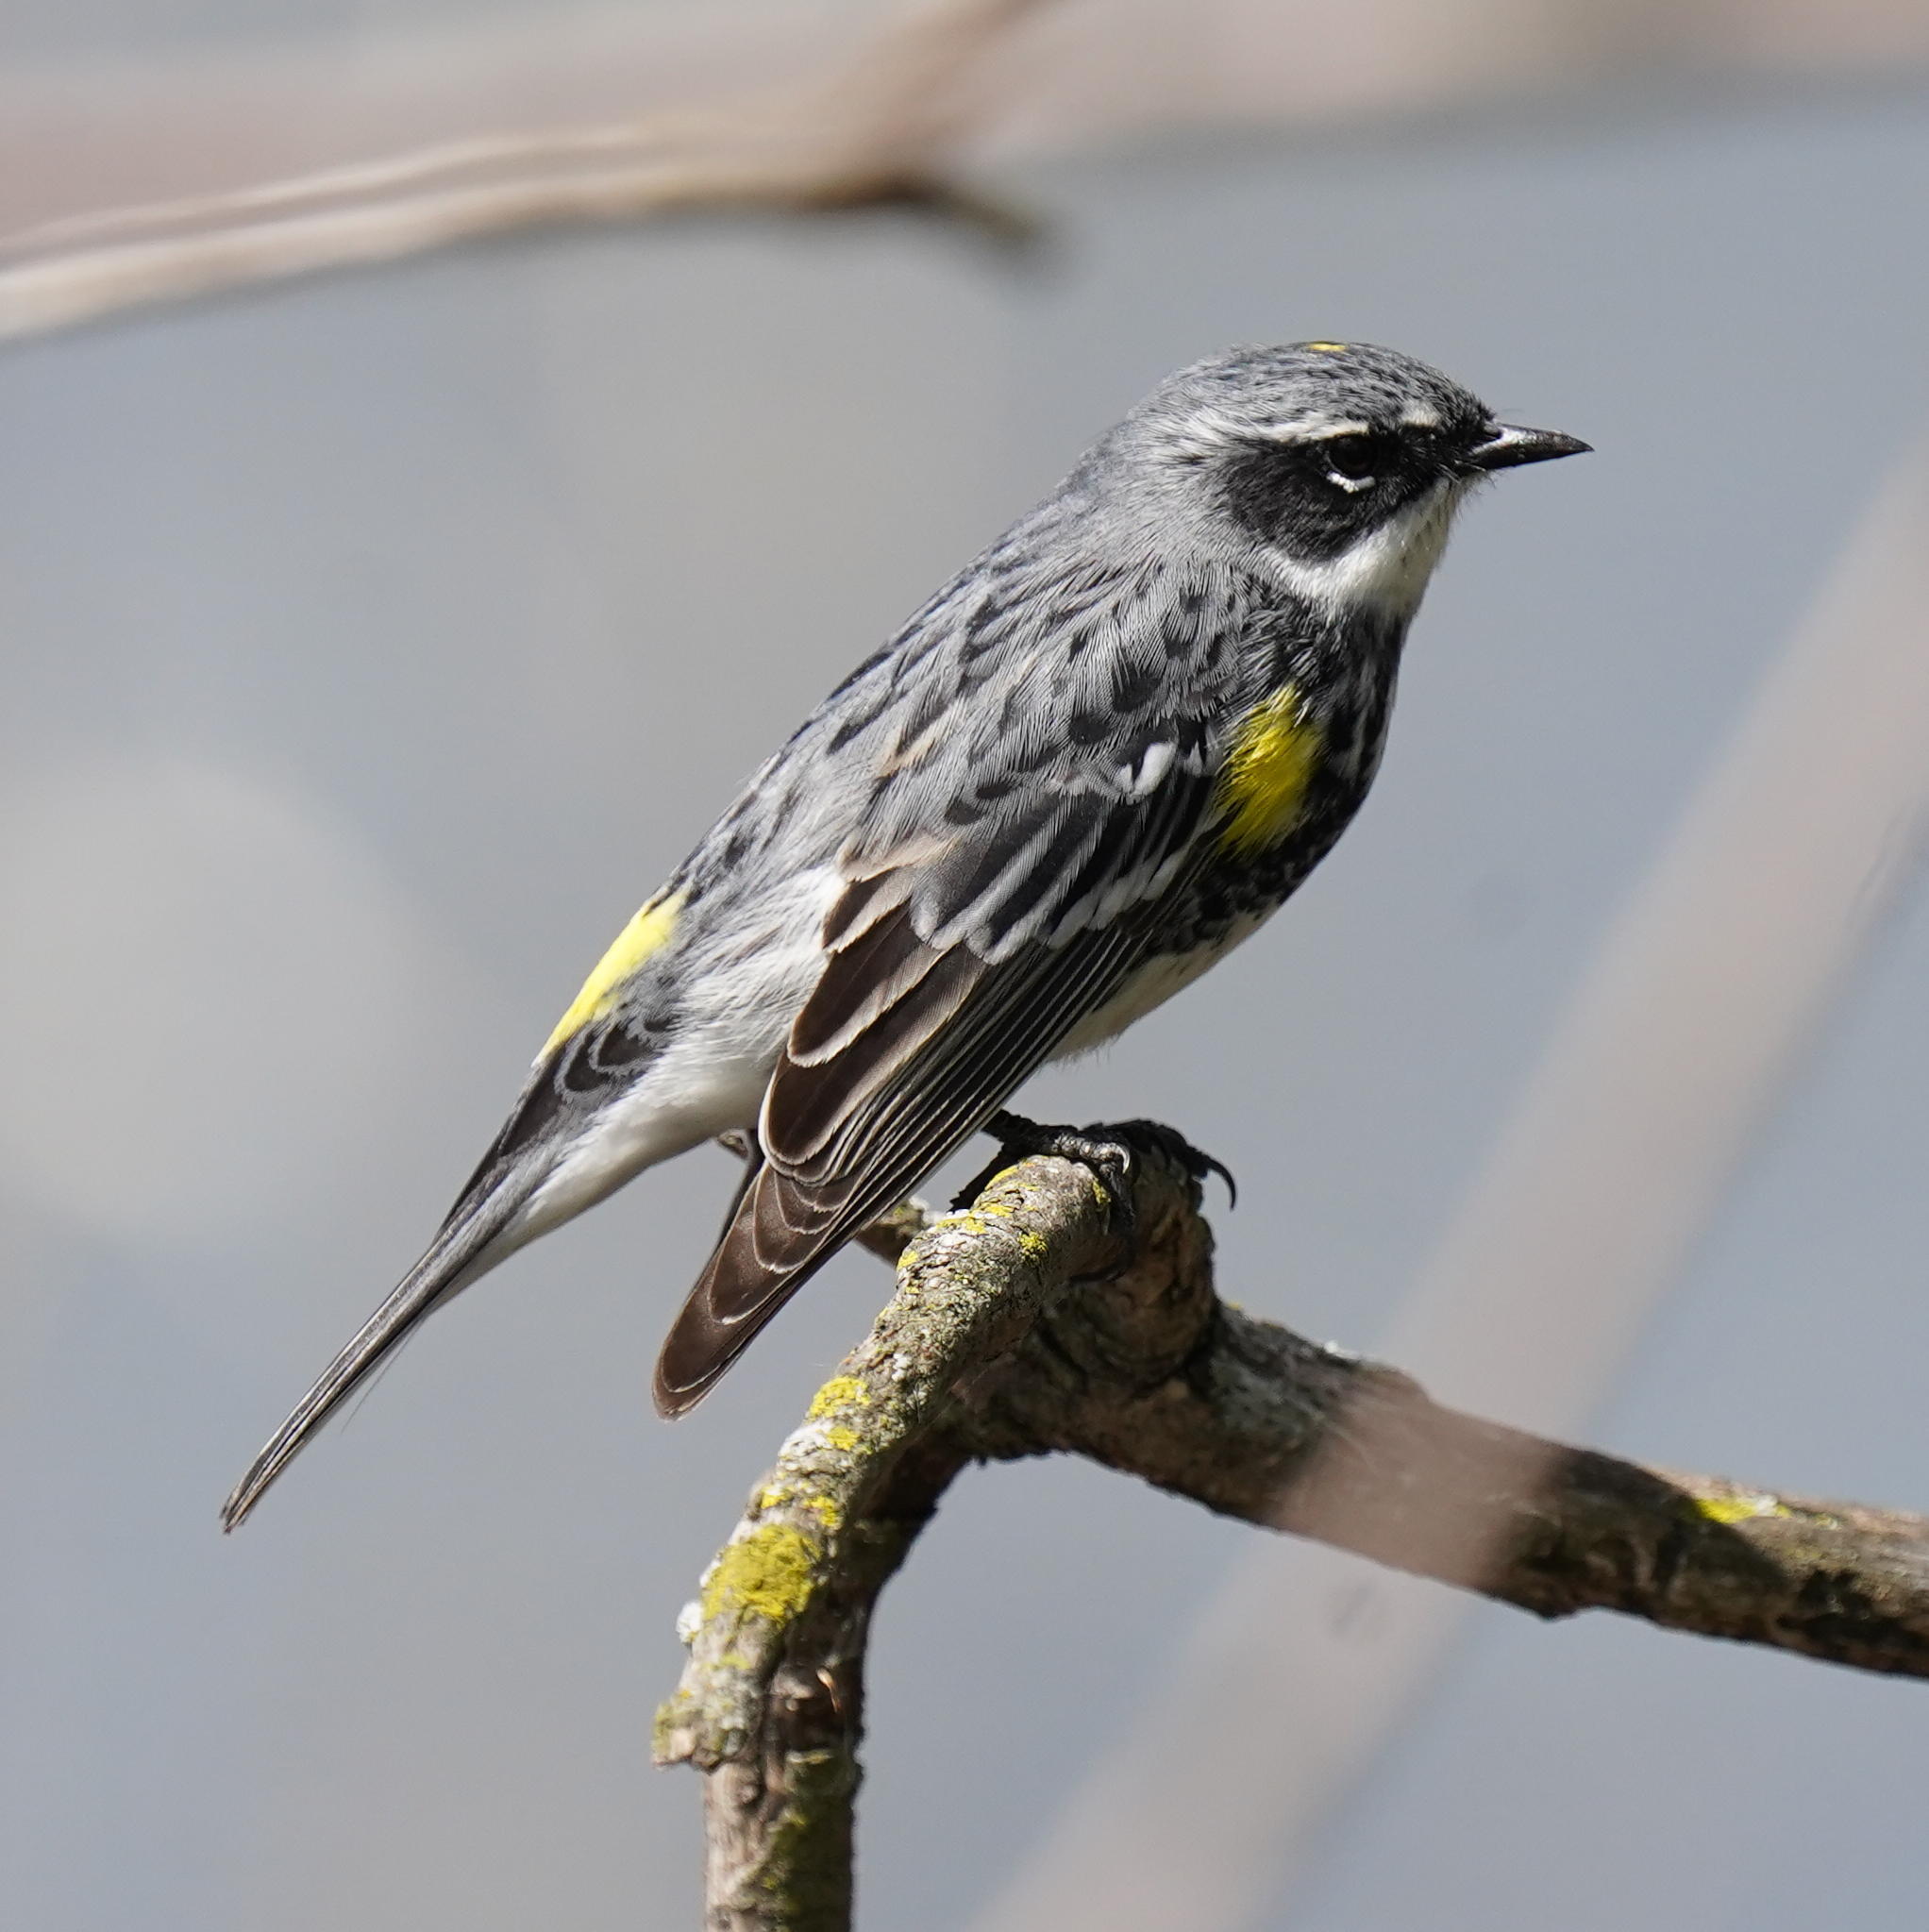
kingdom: Animalia
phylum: Chordata
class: Aves
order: Passeriformes
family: Parulidae
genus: Setophaga
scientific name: Setophaga coronata
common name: Myrtle warbler
